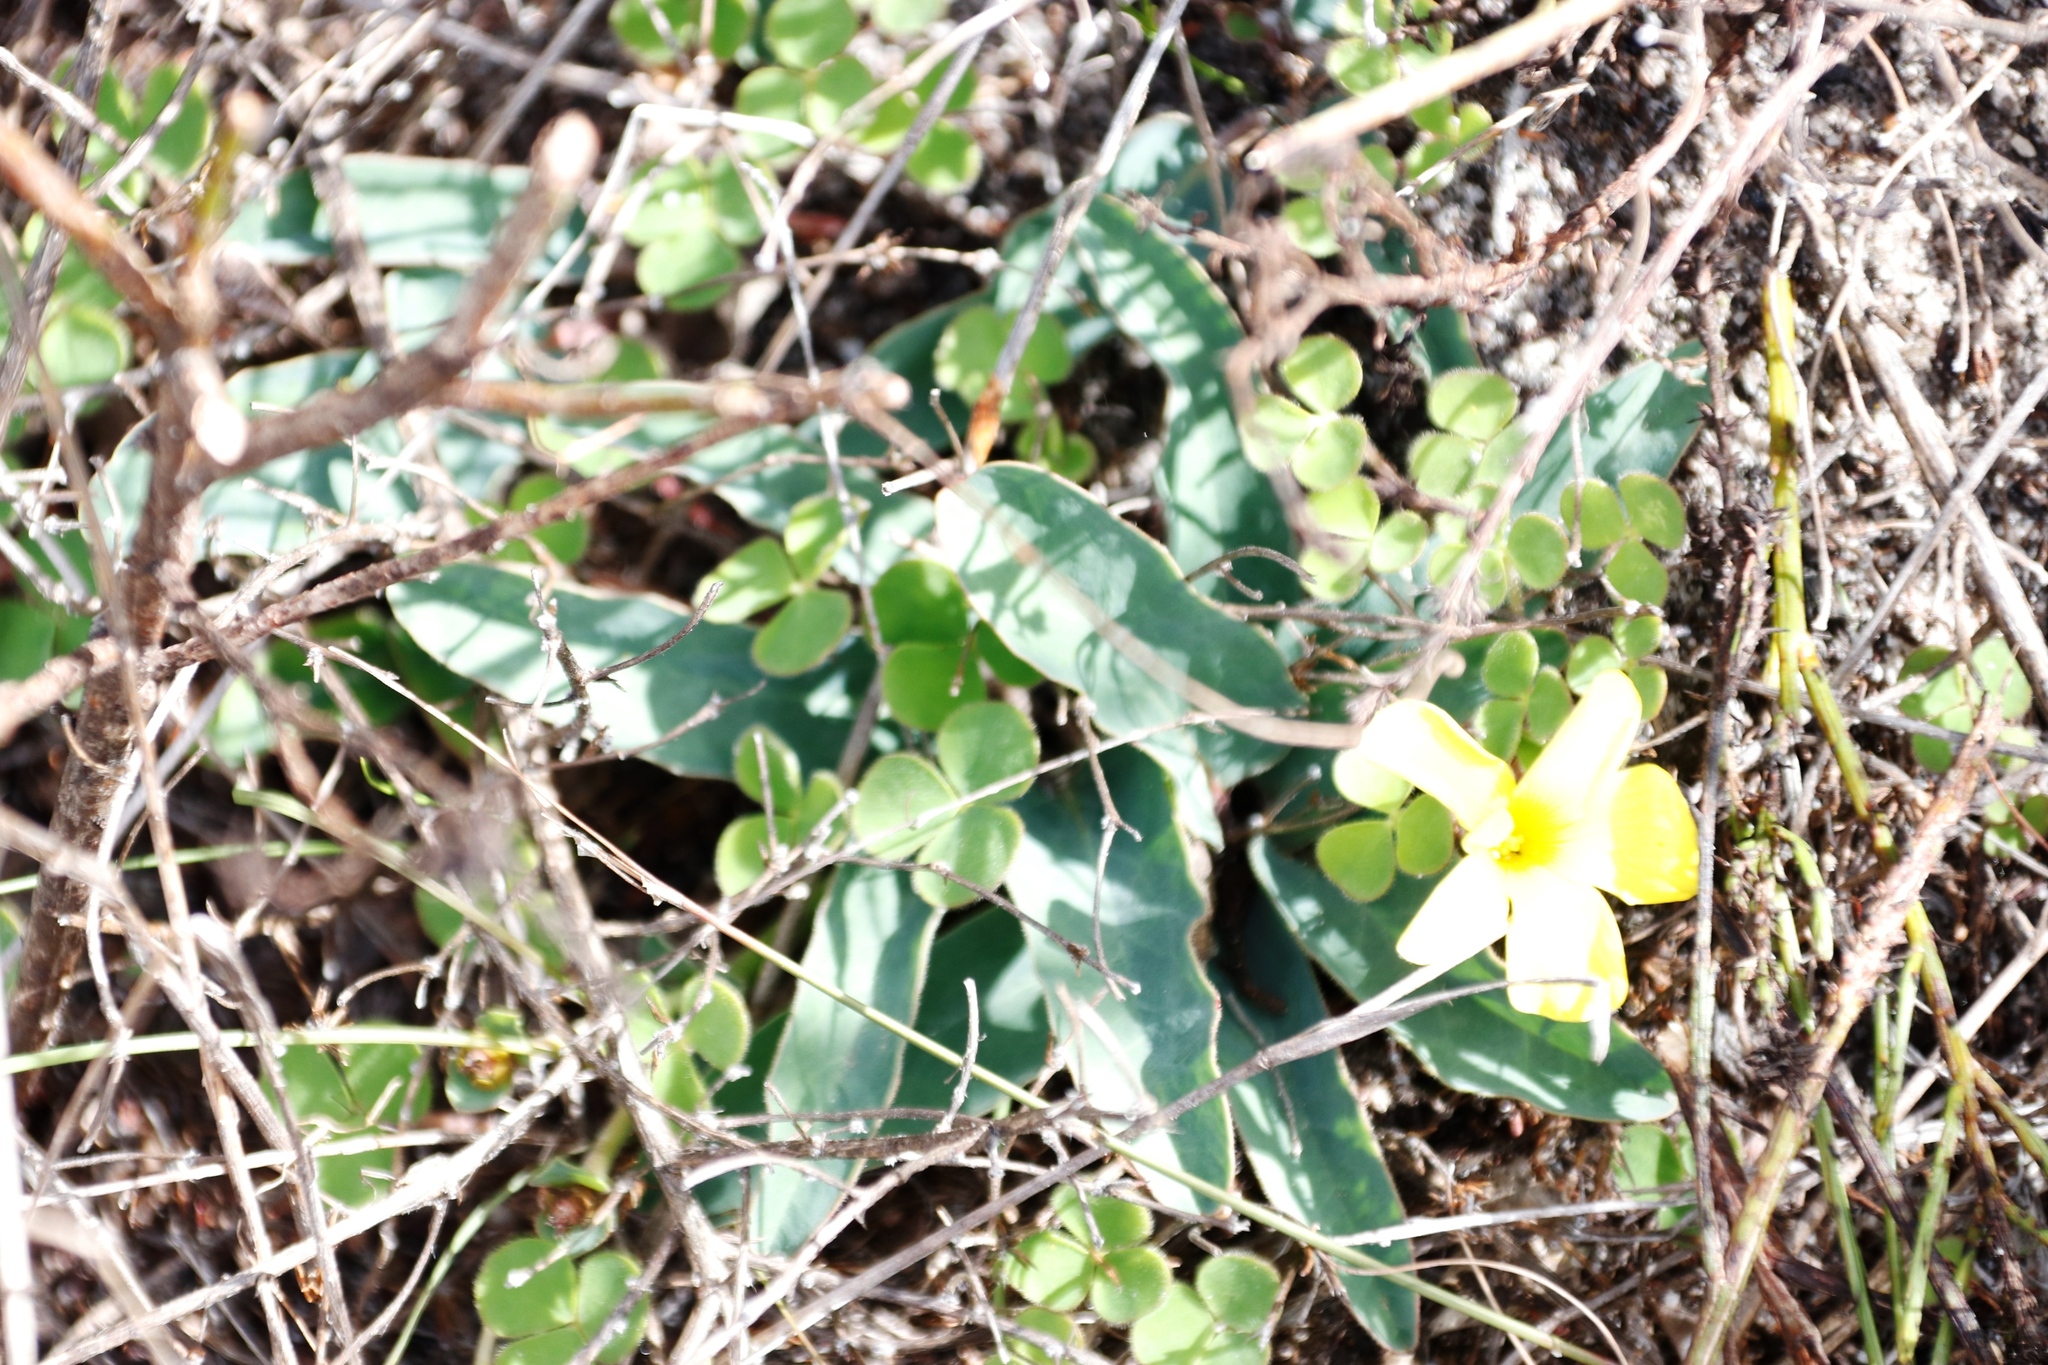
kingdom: Plantae
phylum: Tracheophyta
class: Magnoliopsida
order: Malpighiales
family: Euphorbiaceae
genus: Euphorbia
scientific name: Euphorbia tuberosa
